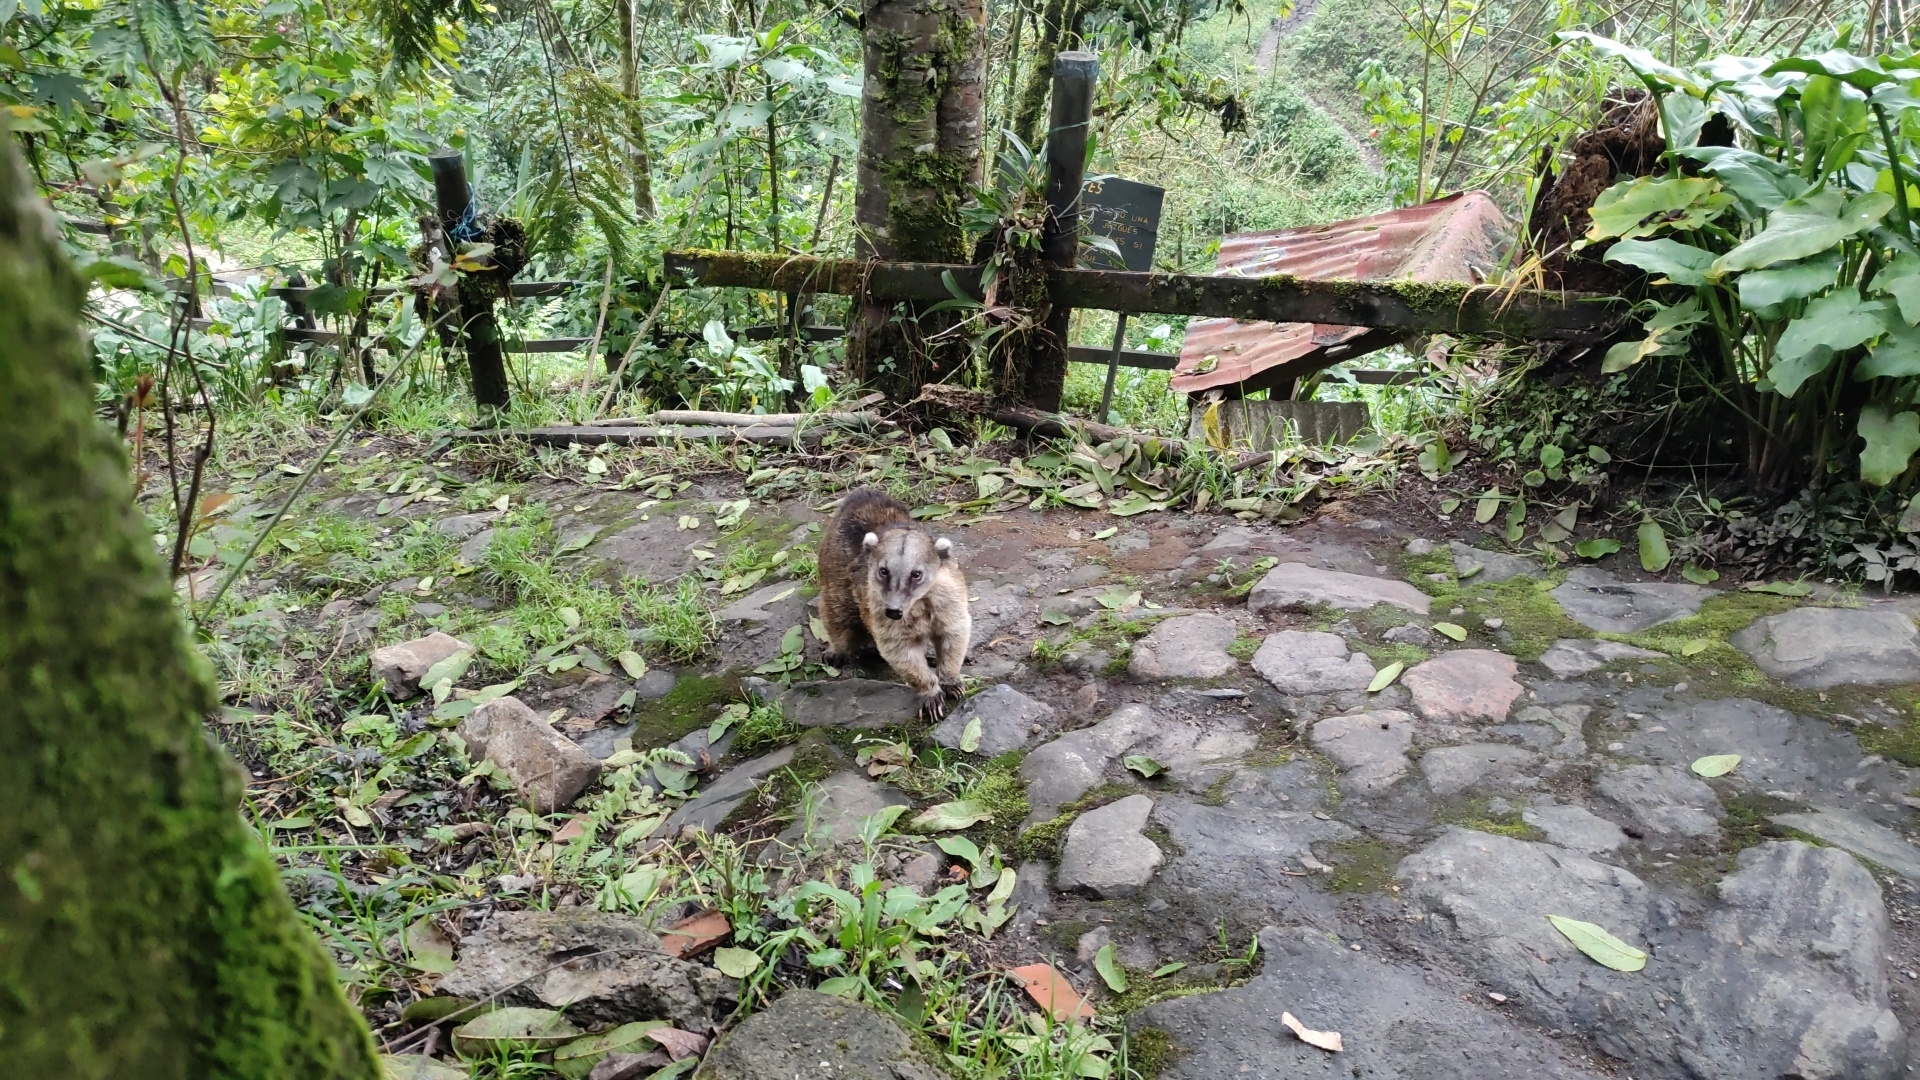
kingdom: Animalia
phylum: Chordata
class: Mammalia
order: Carnivora
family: Procyonidae
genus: Nasua
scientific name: Nasua nasua
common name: South american coati
